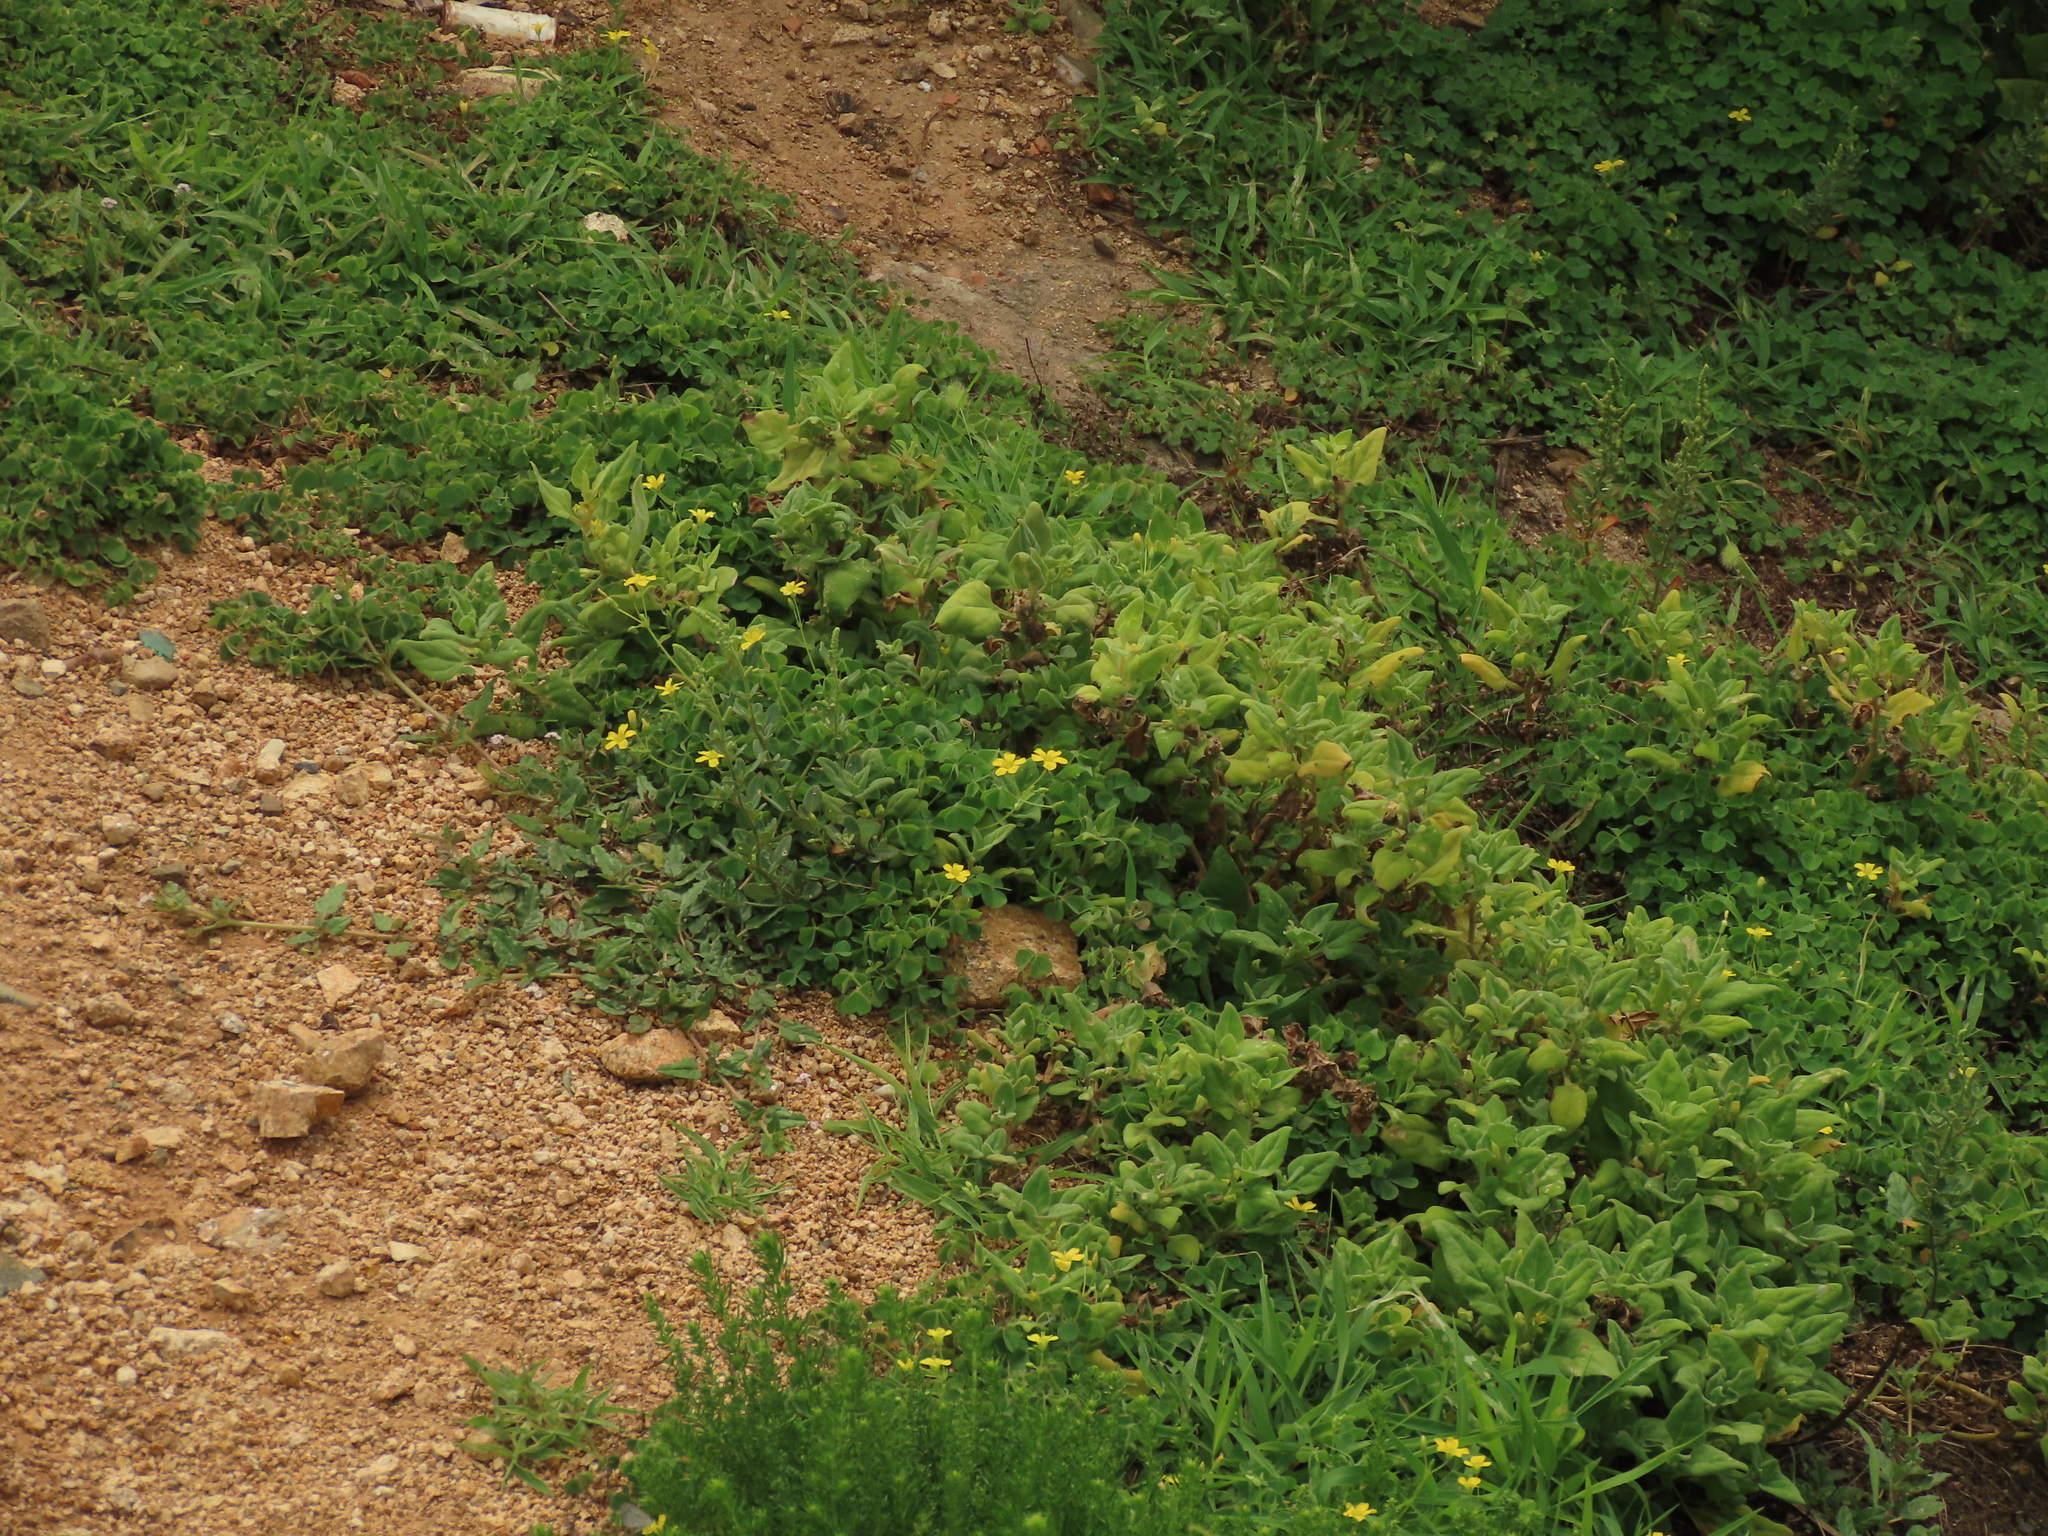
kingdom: Plantae
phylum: Tracheophyta
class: Magnoliopsida
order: Oxalidales
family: Oxalidaceae
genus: Oxalis
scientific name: Oxalis corniculata
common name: Procumbent yellow-sorrel
